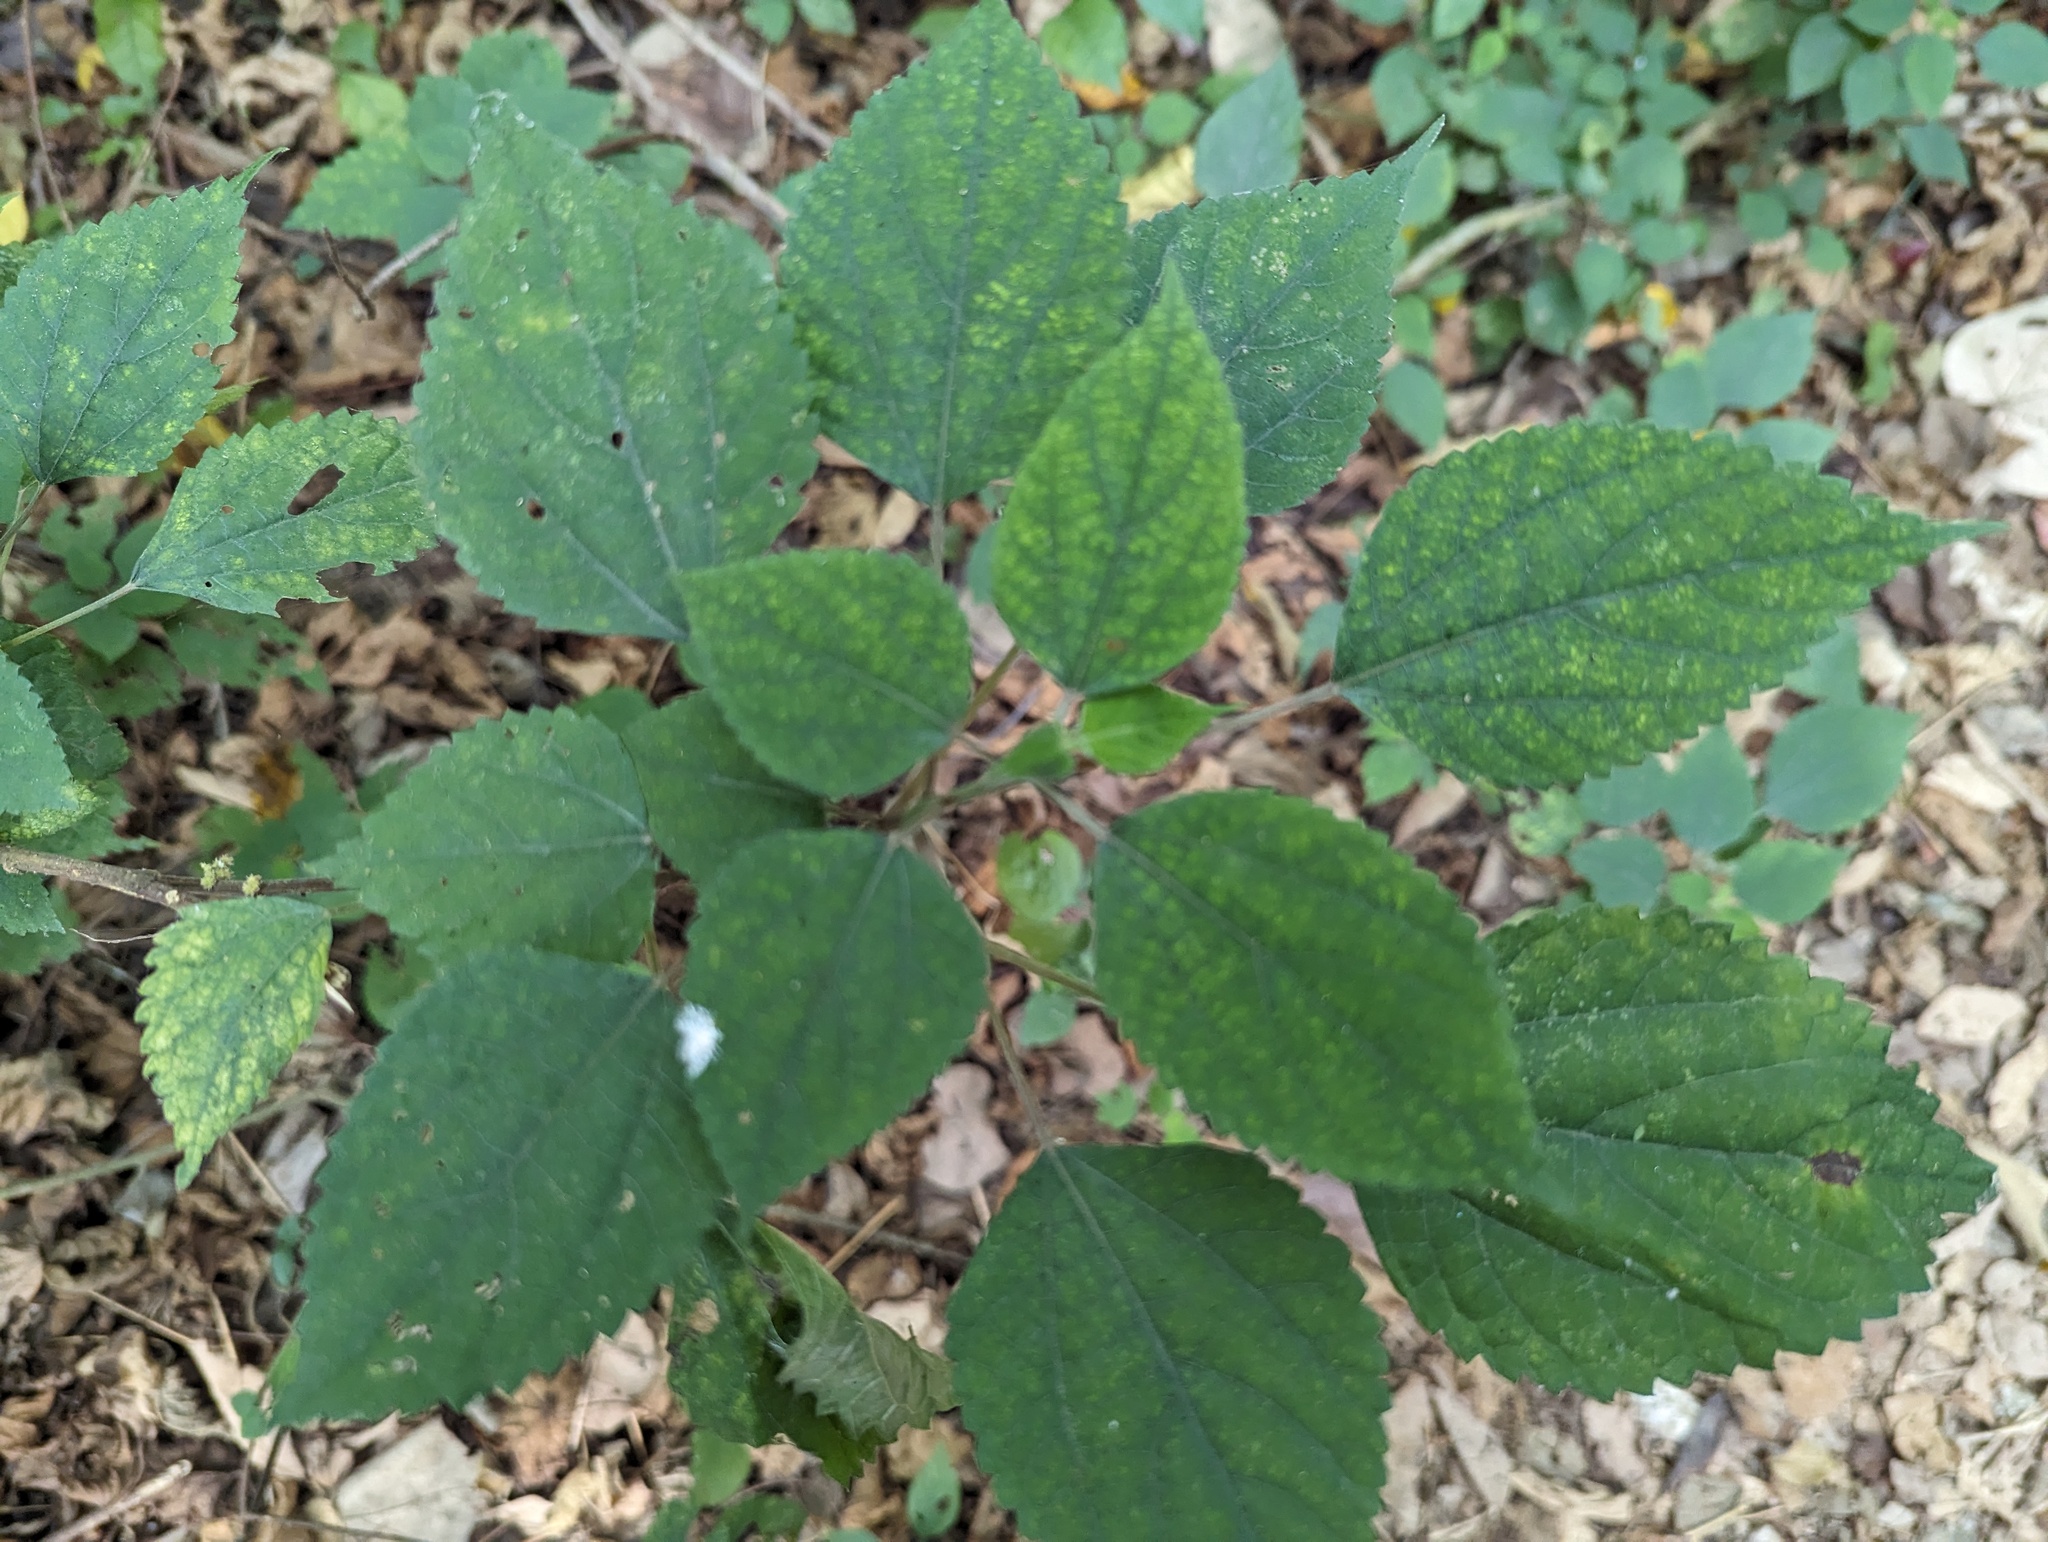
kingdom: Plantae
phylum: Tracheophyta
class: Magnoliopsida
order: Rosales
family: Urticaceae
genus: Boehmeria
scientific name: Boehmeria nivea
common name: Ramie chinese grass
